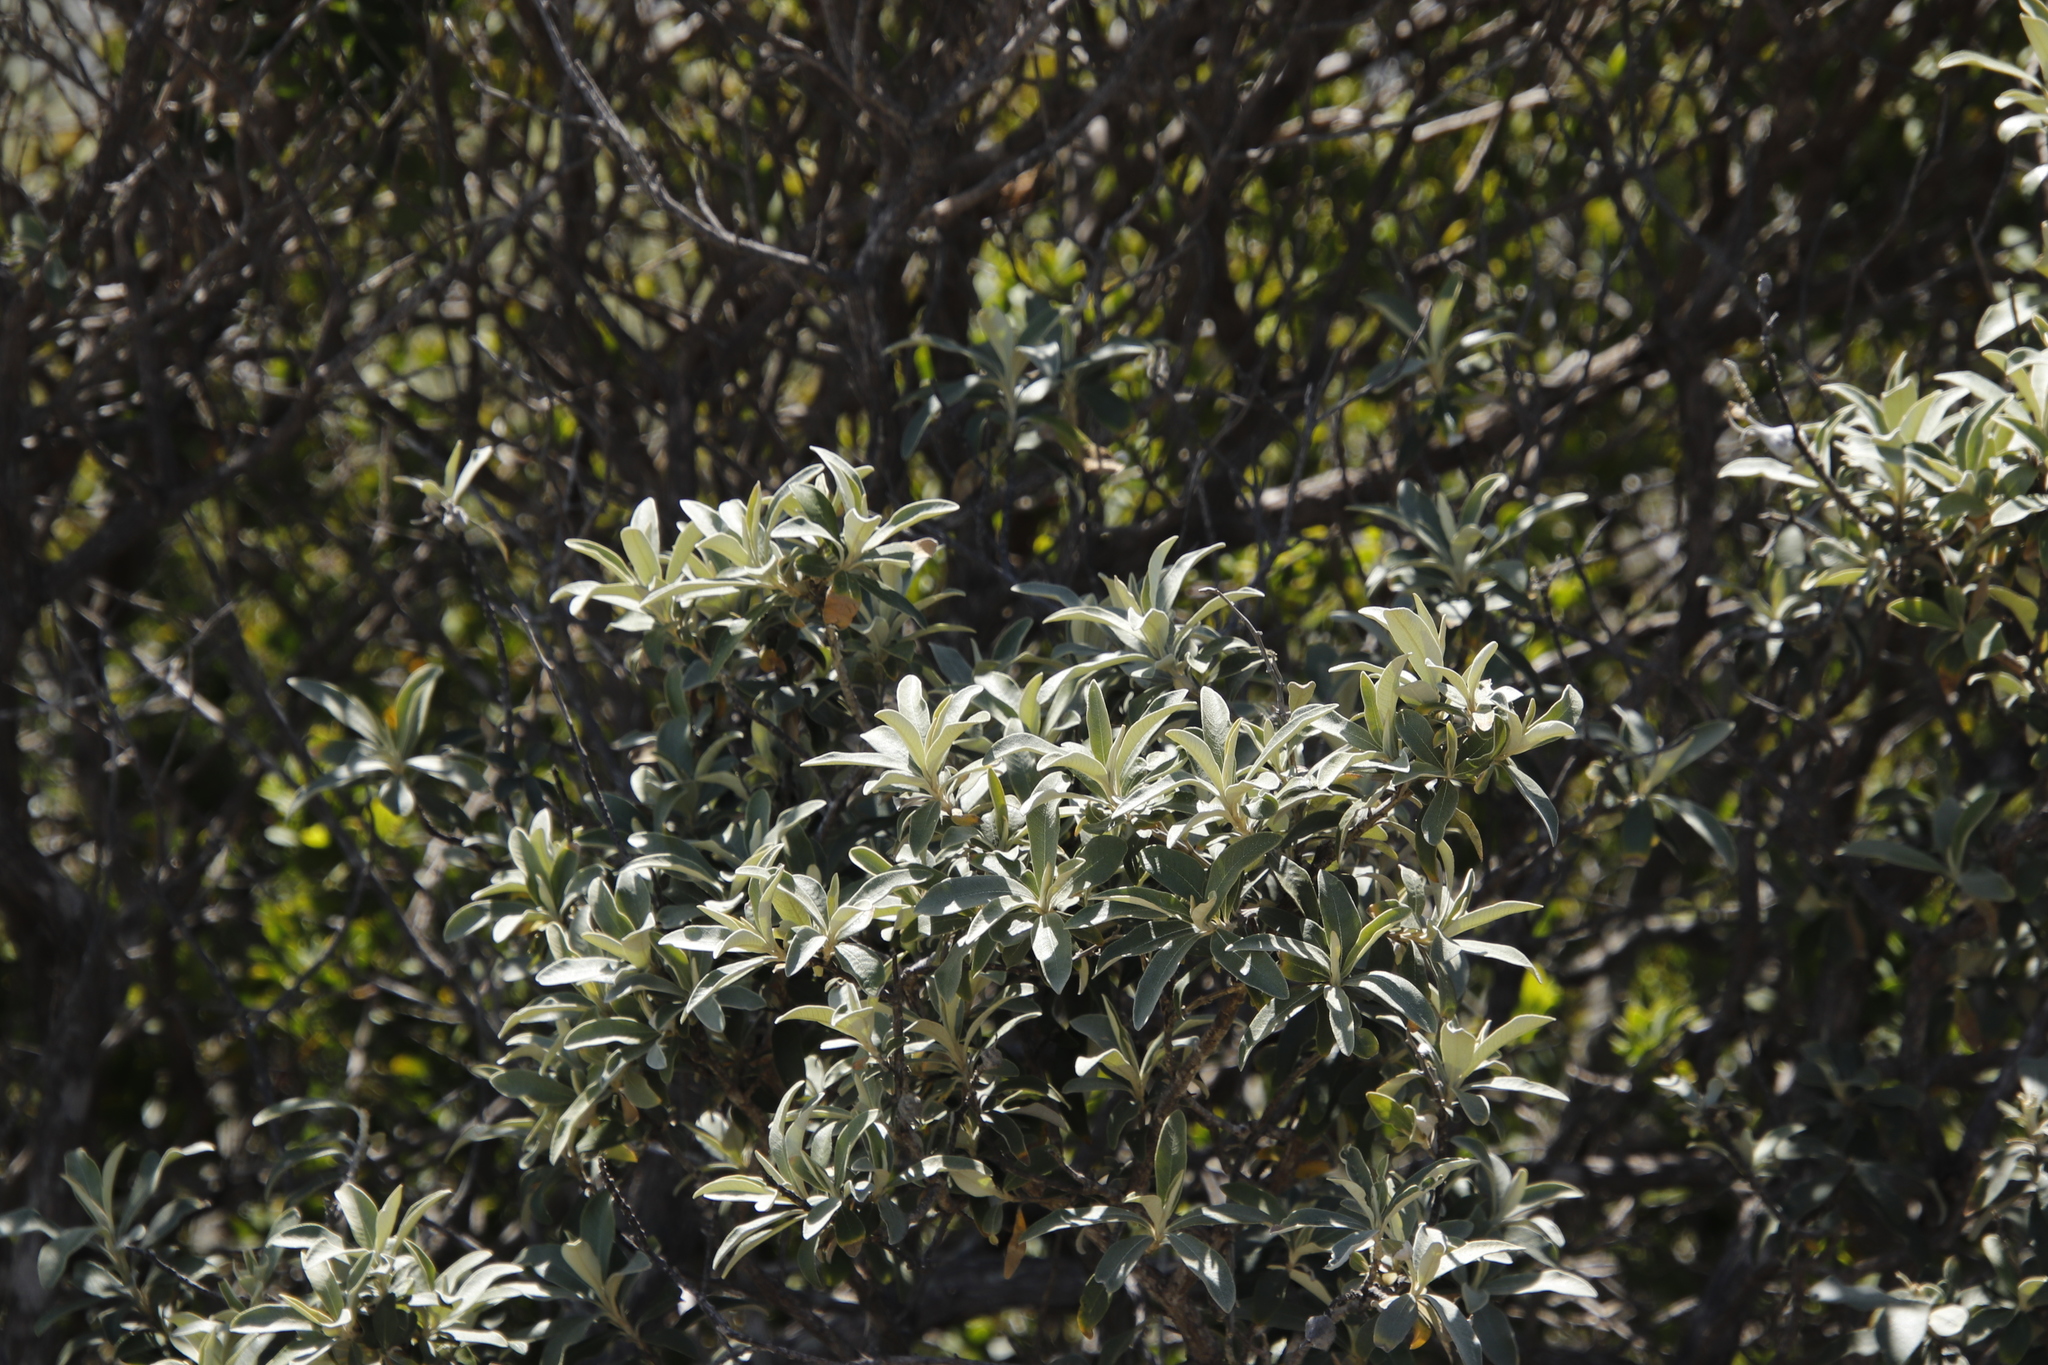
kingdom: Plantae
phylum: Tracheophyta
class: Magnoliopsida
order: Asterales
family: Asteraceae
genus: Tarchonanthus
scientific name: Tarchonanthus littoralis
